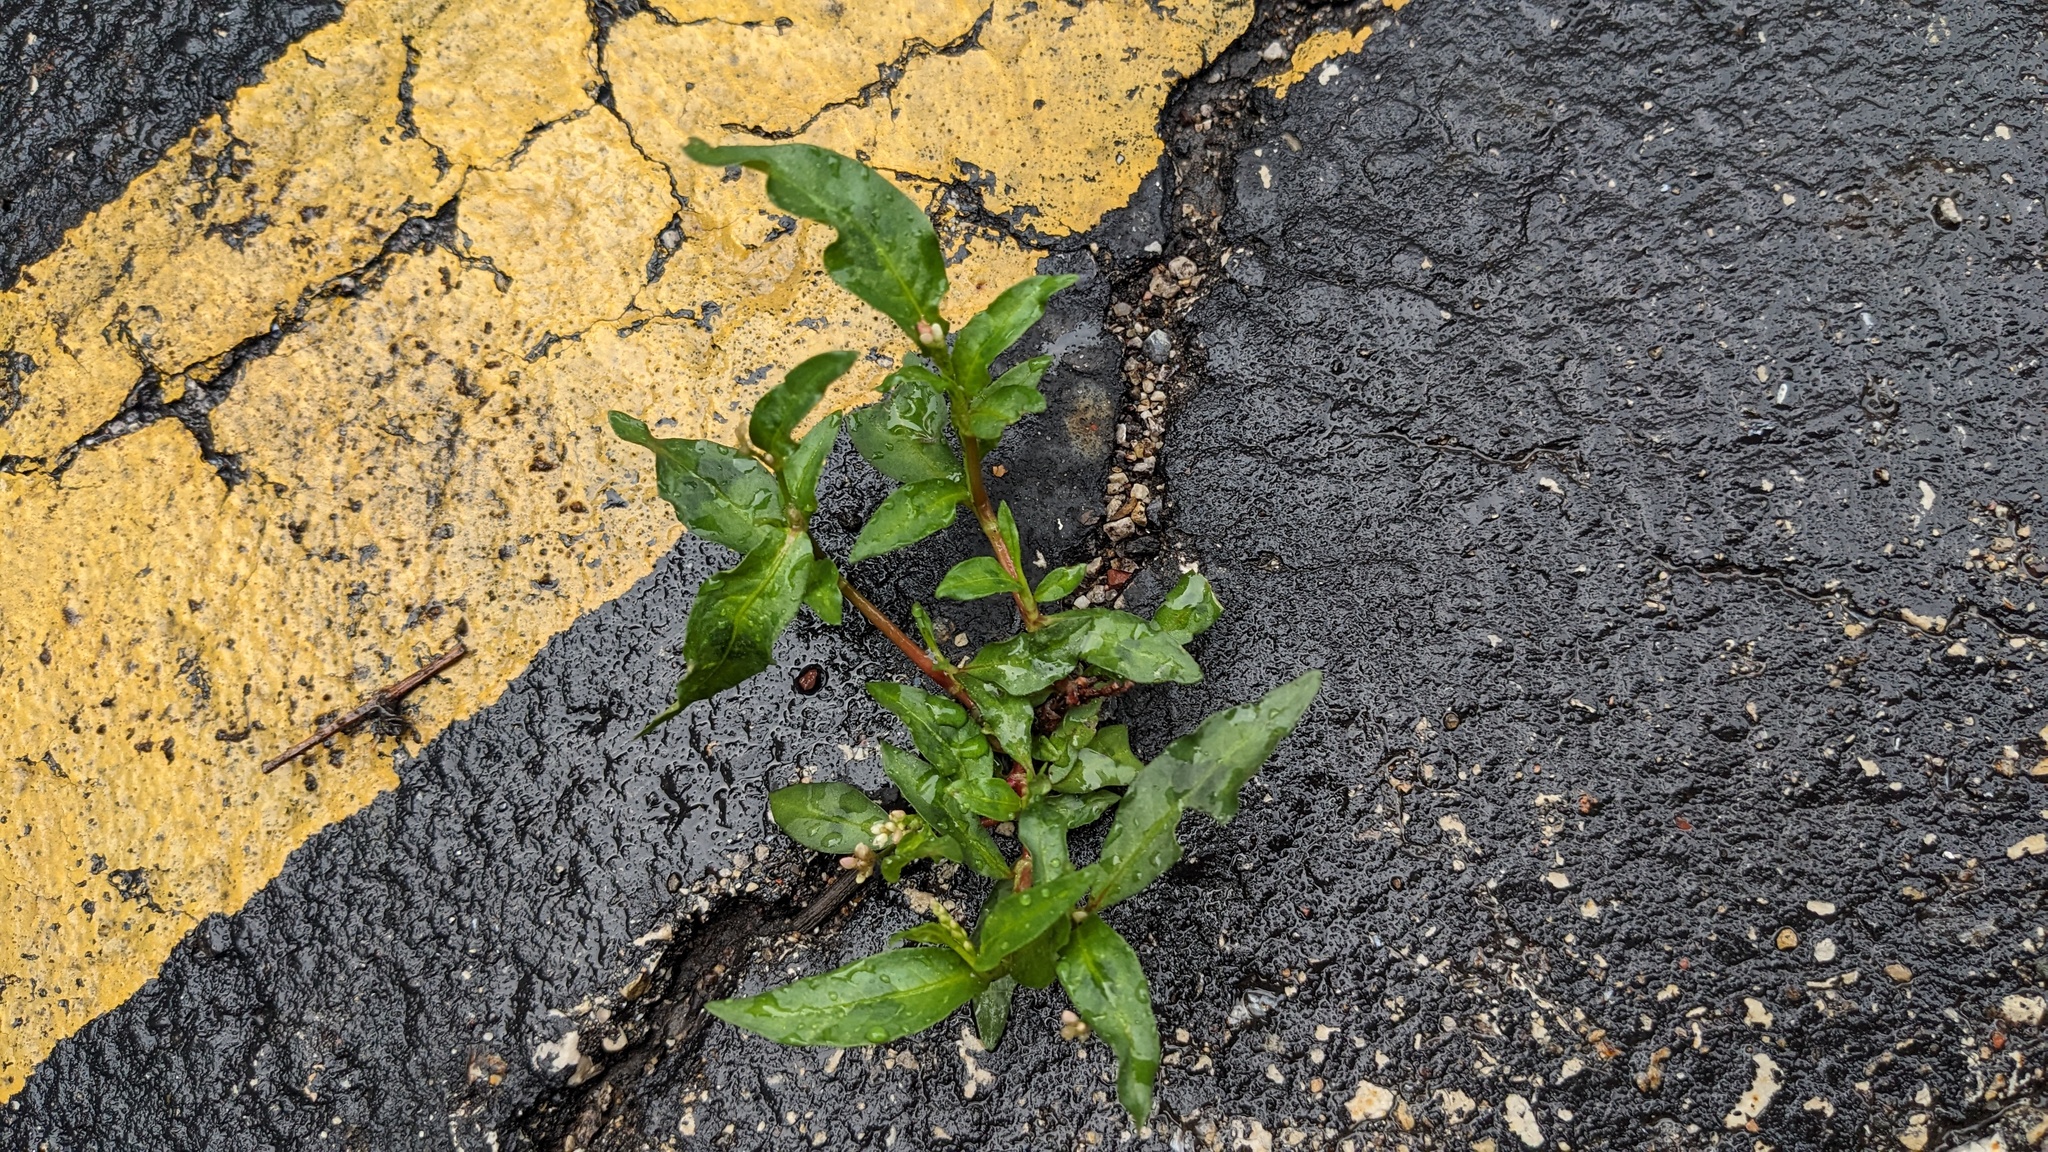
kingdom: Plantae
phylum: Tracheophyta
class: Magnoliopsida
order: Caryophyllales
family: Polygonaceae
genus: Persicaria
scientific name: Persicaria maculosa
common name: Redshank
